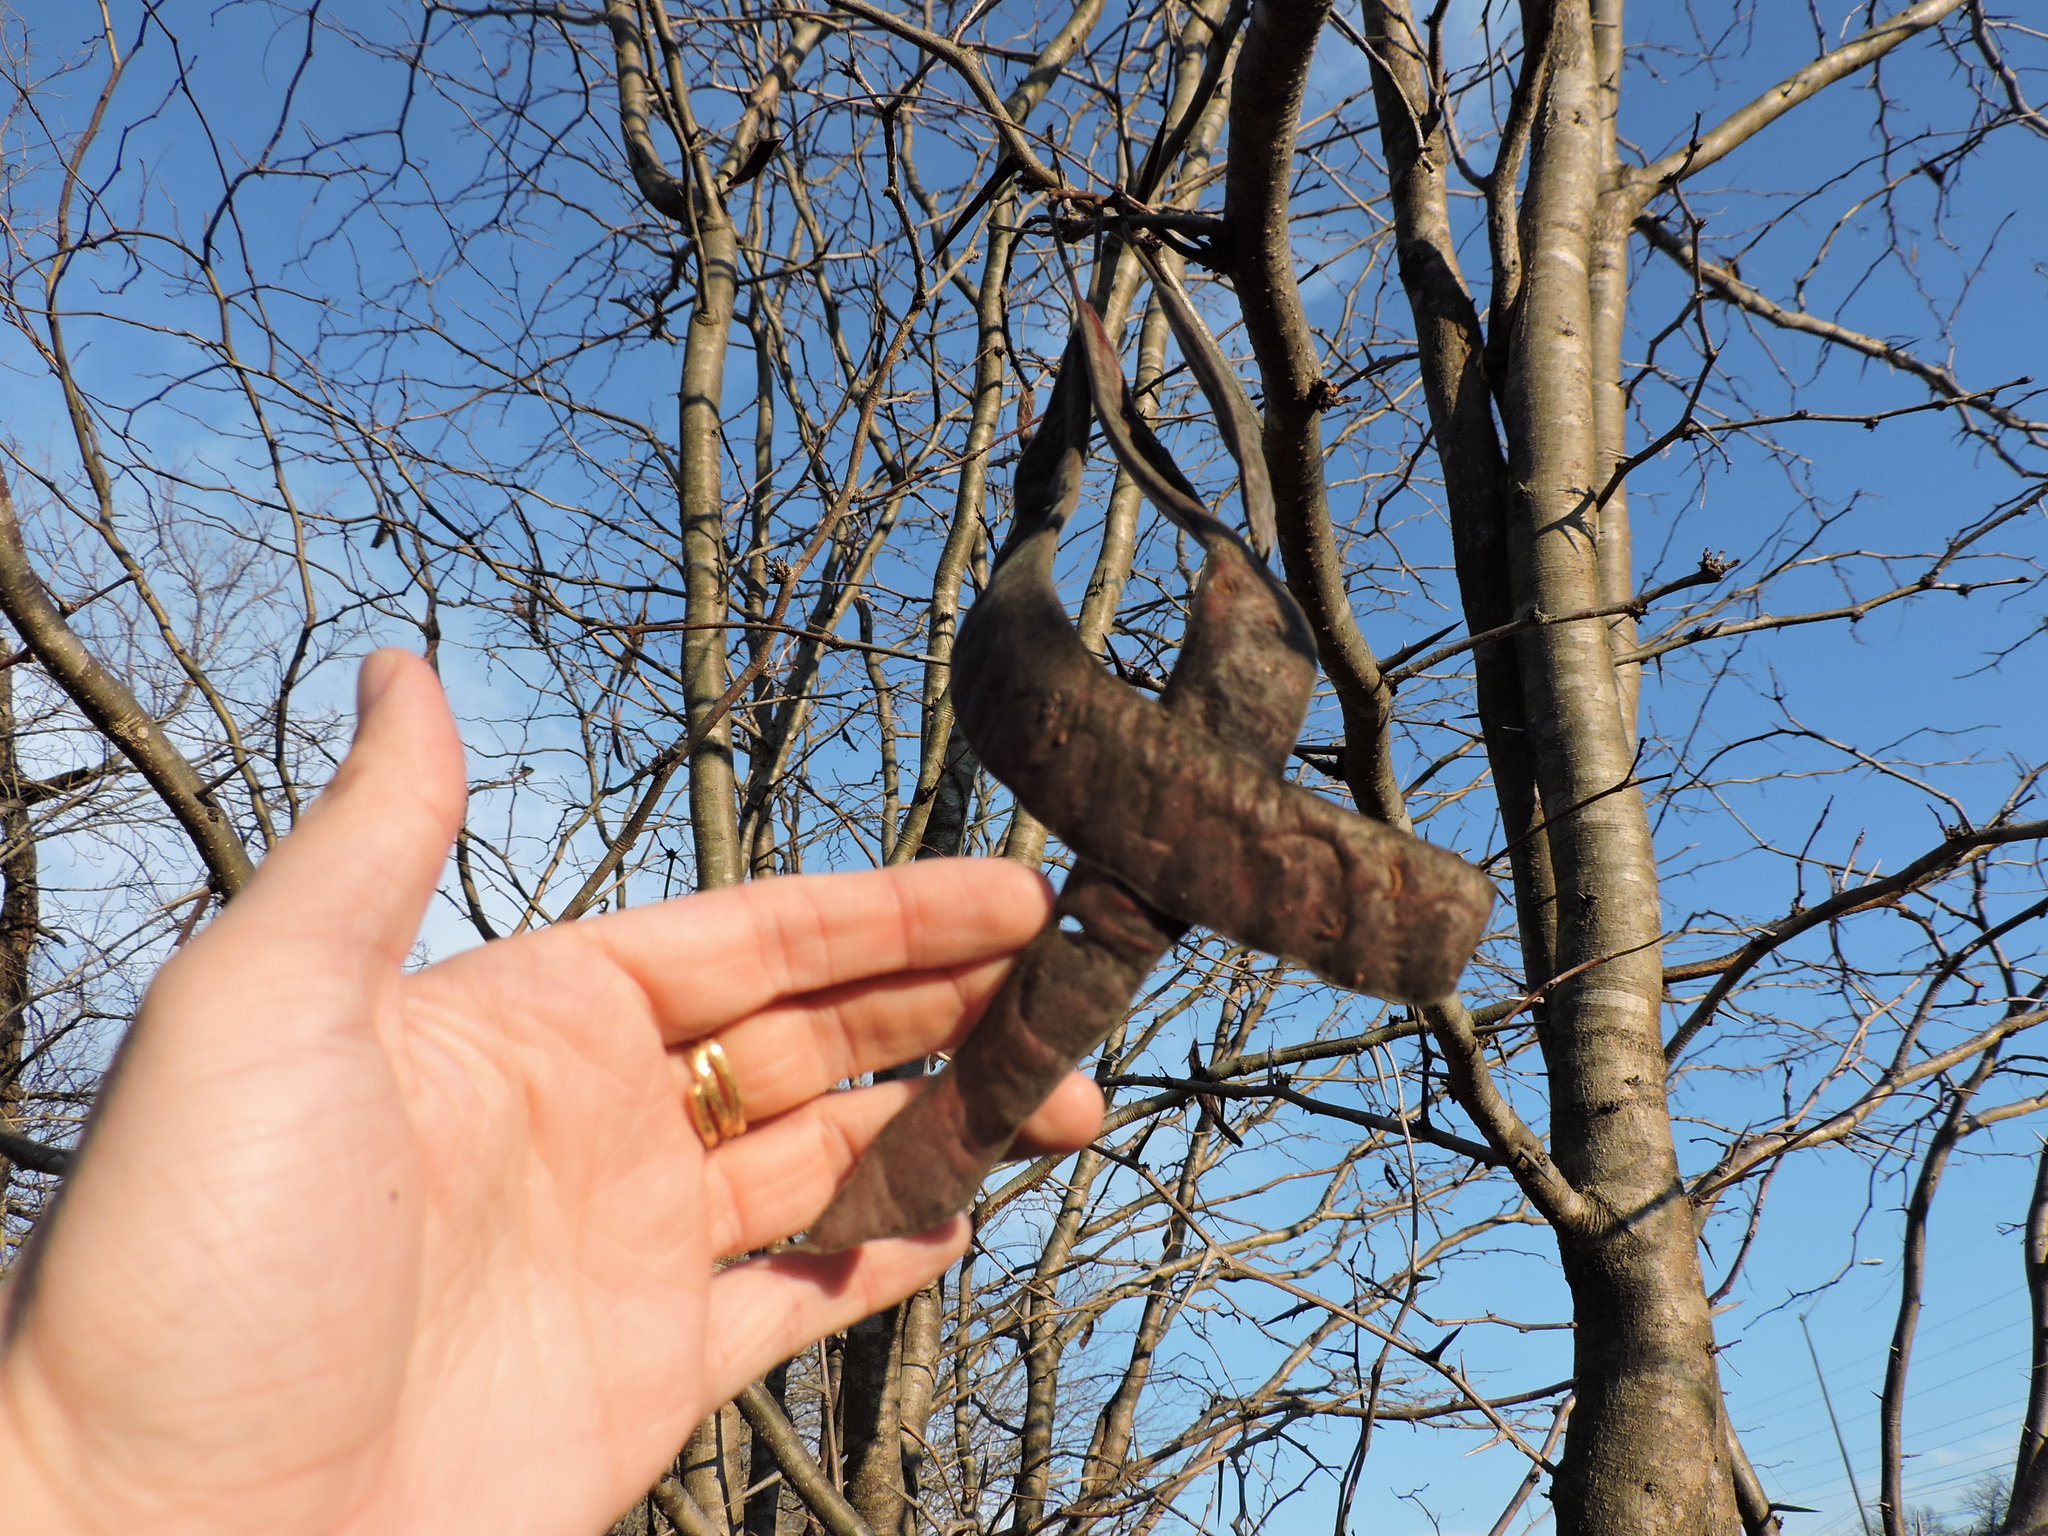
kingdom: Plantae
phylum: Tracheophyta
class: Magnoliopsida
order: Fabales
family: Fabaceae
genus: Gleditsia
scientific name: Gleditsia triacanthos
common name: Common honeylocust
